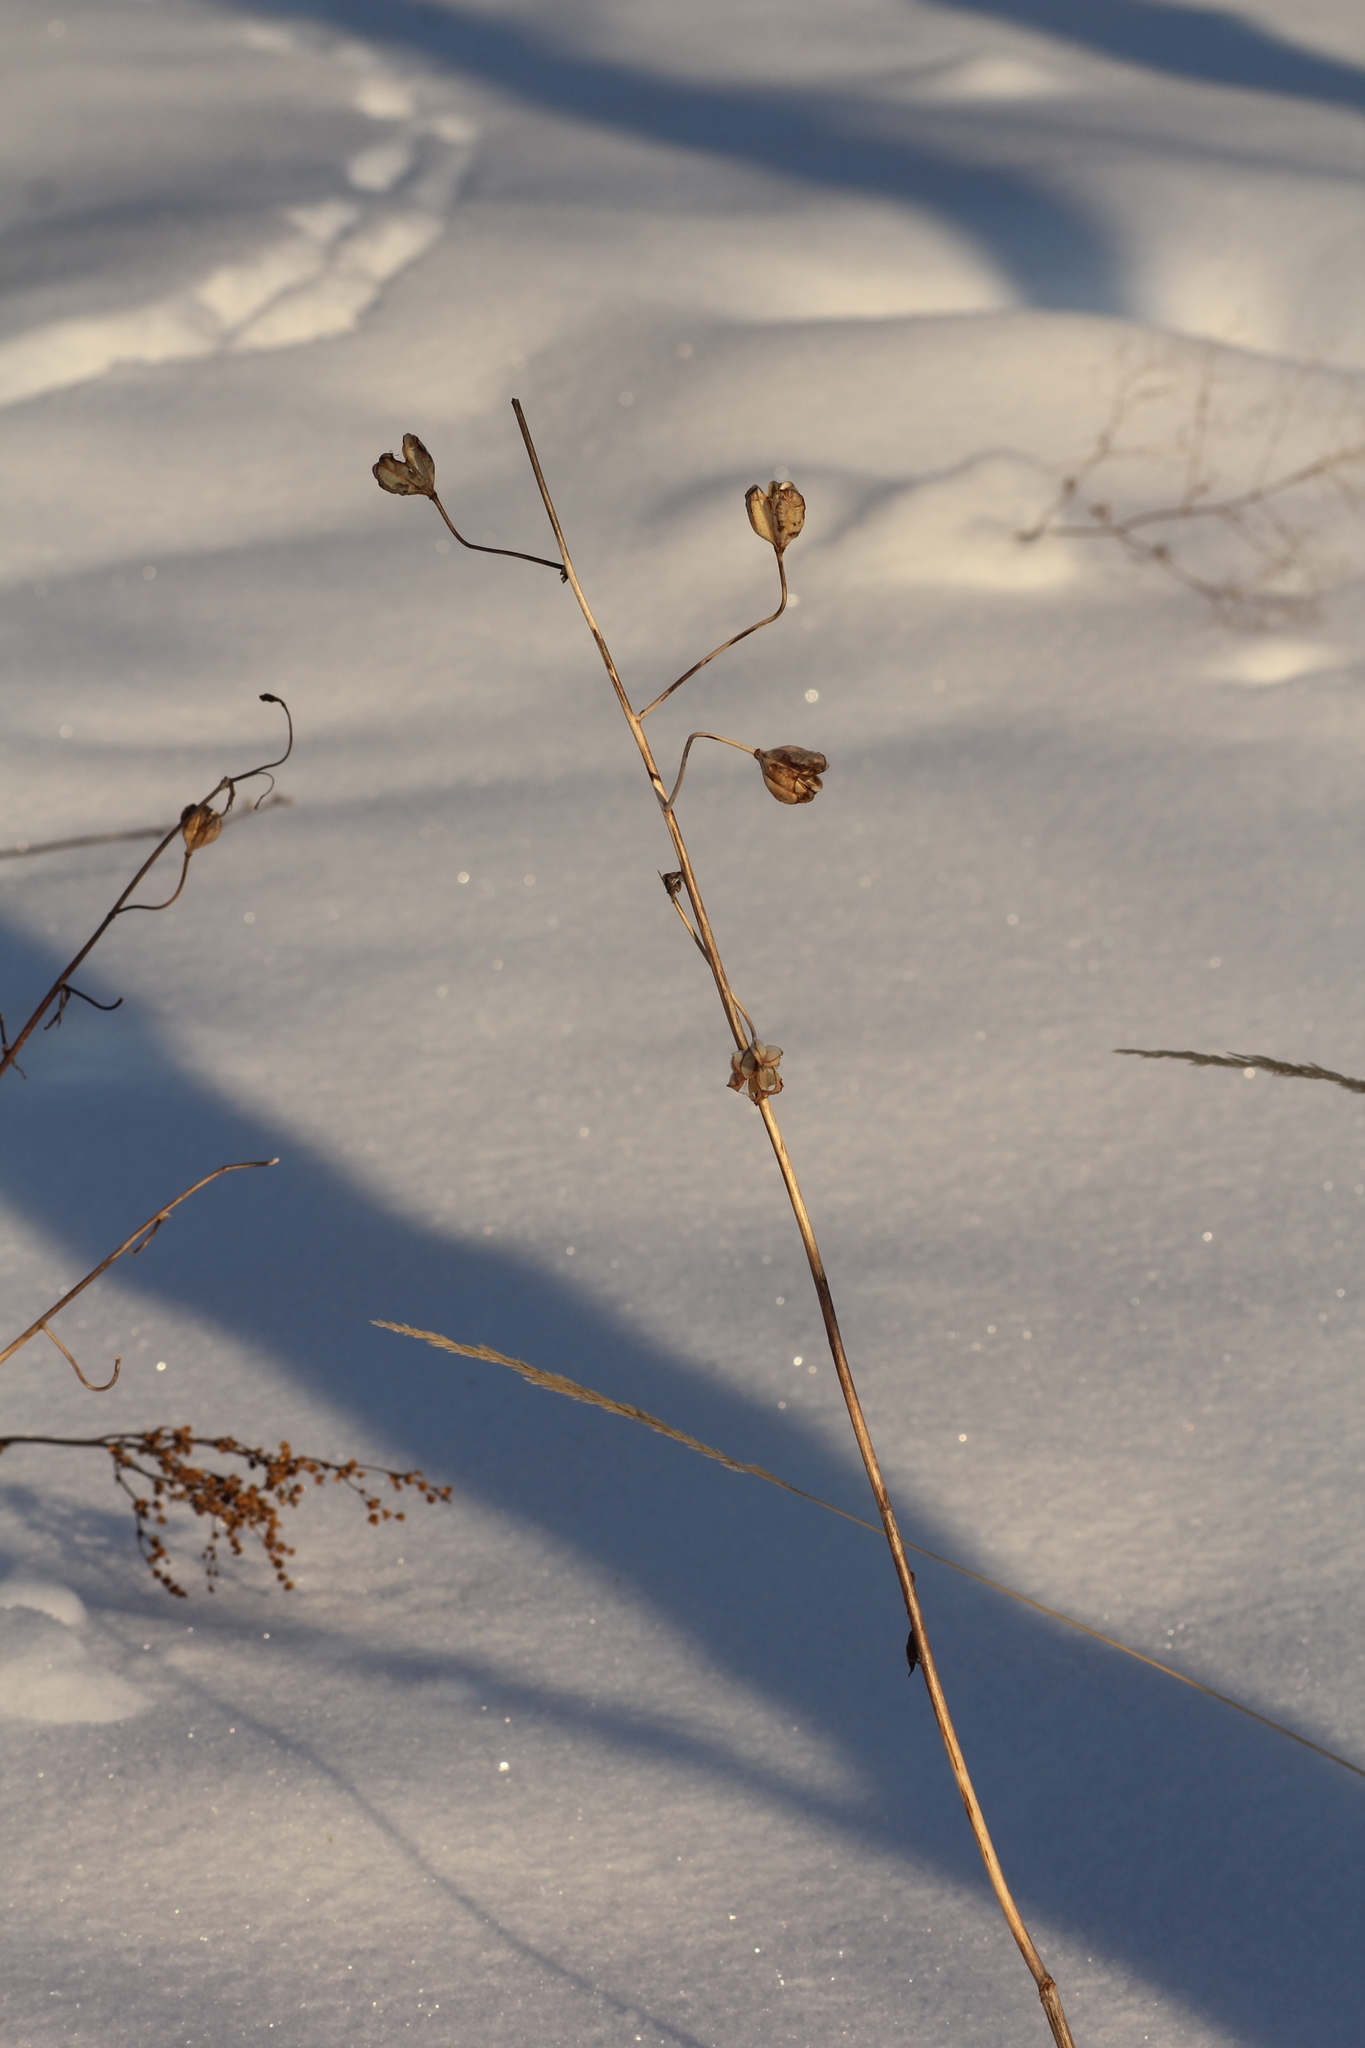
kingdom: Plantae
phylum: Tracheophyta
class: Liliopsida
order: Liliales
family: Liliaceae
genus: Lilium
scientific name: Lilium martagon
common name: Martagon lily
